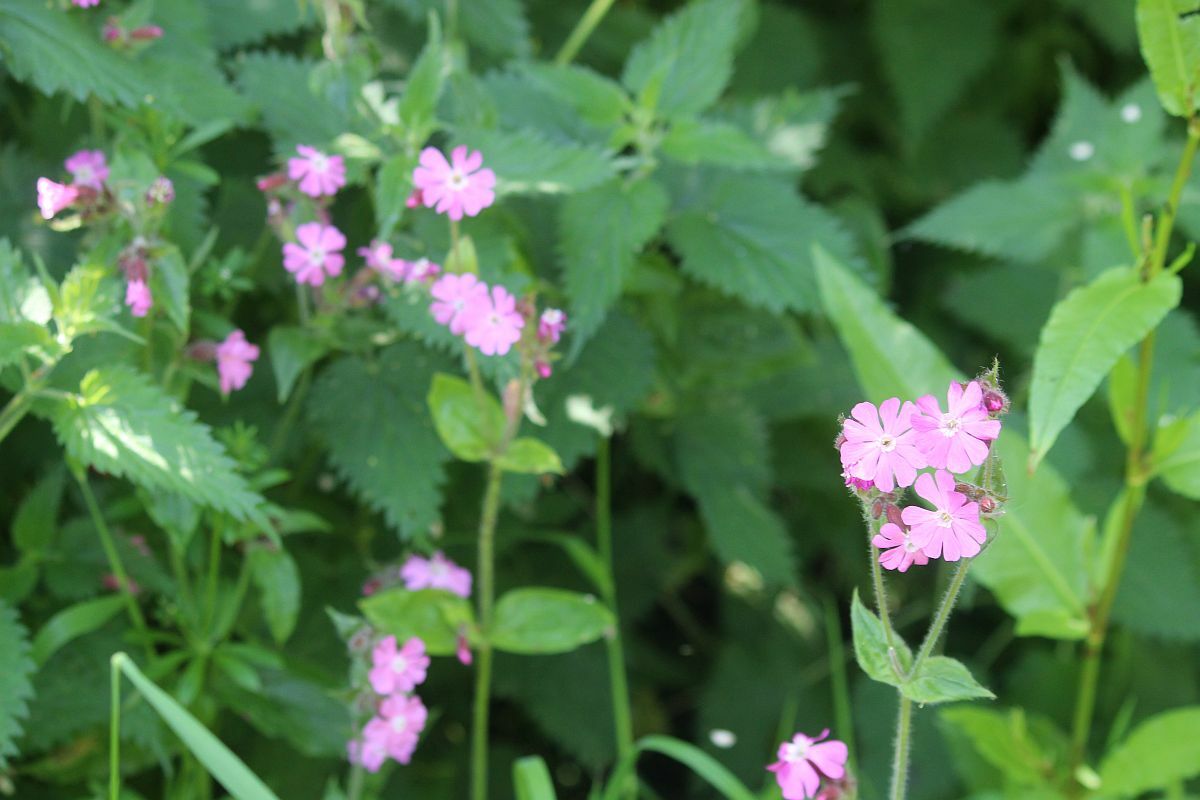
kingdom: Plantae
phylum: Tracheophyta
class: Magnoliopsida
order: Caryophyllales
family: Caryophyllaceae
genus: Silene
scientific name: Silene dioica
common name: Red campion
